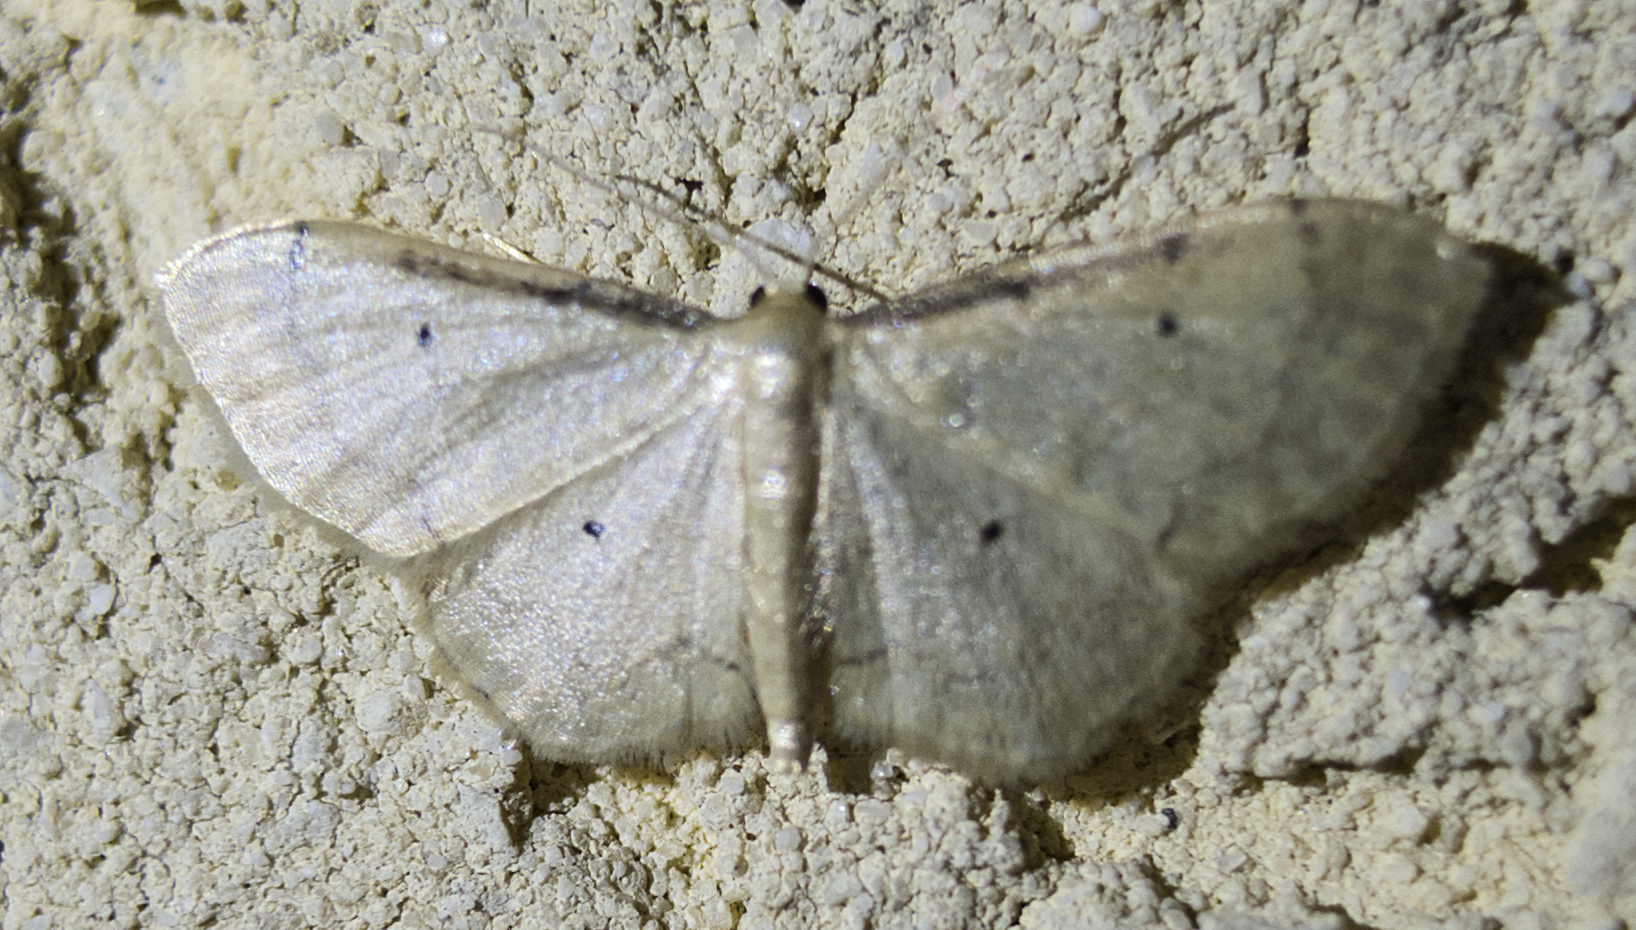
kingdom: Animalia
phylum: Arthropoda
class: Insecta
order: Lepidoptera
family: Geometridae
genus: Idaea
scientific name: Idaea politaria
